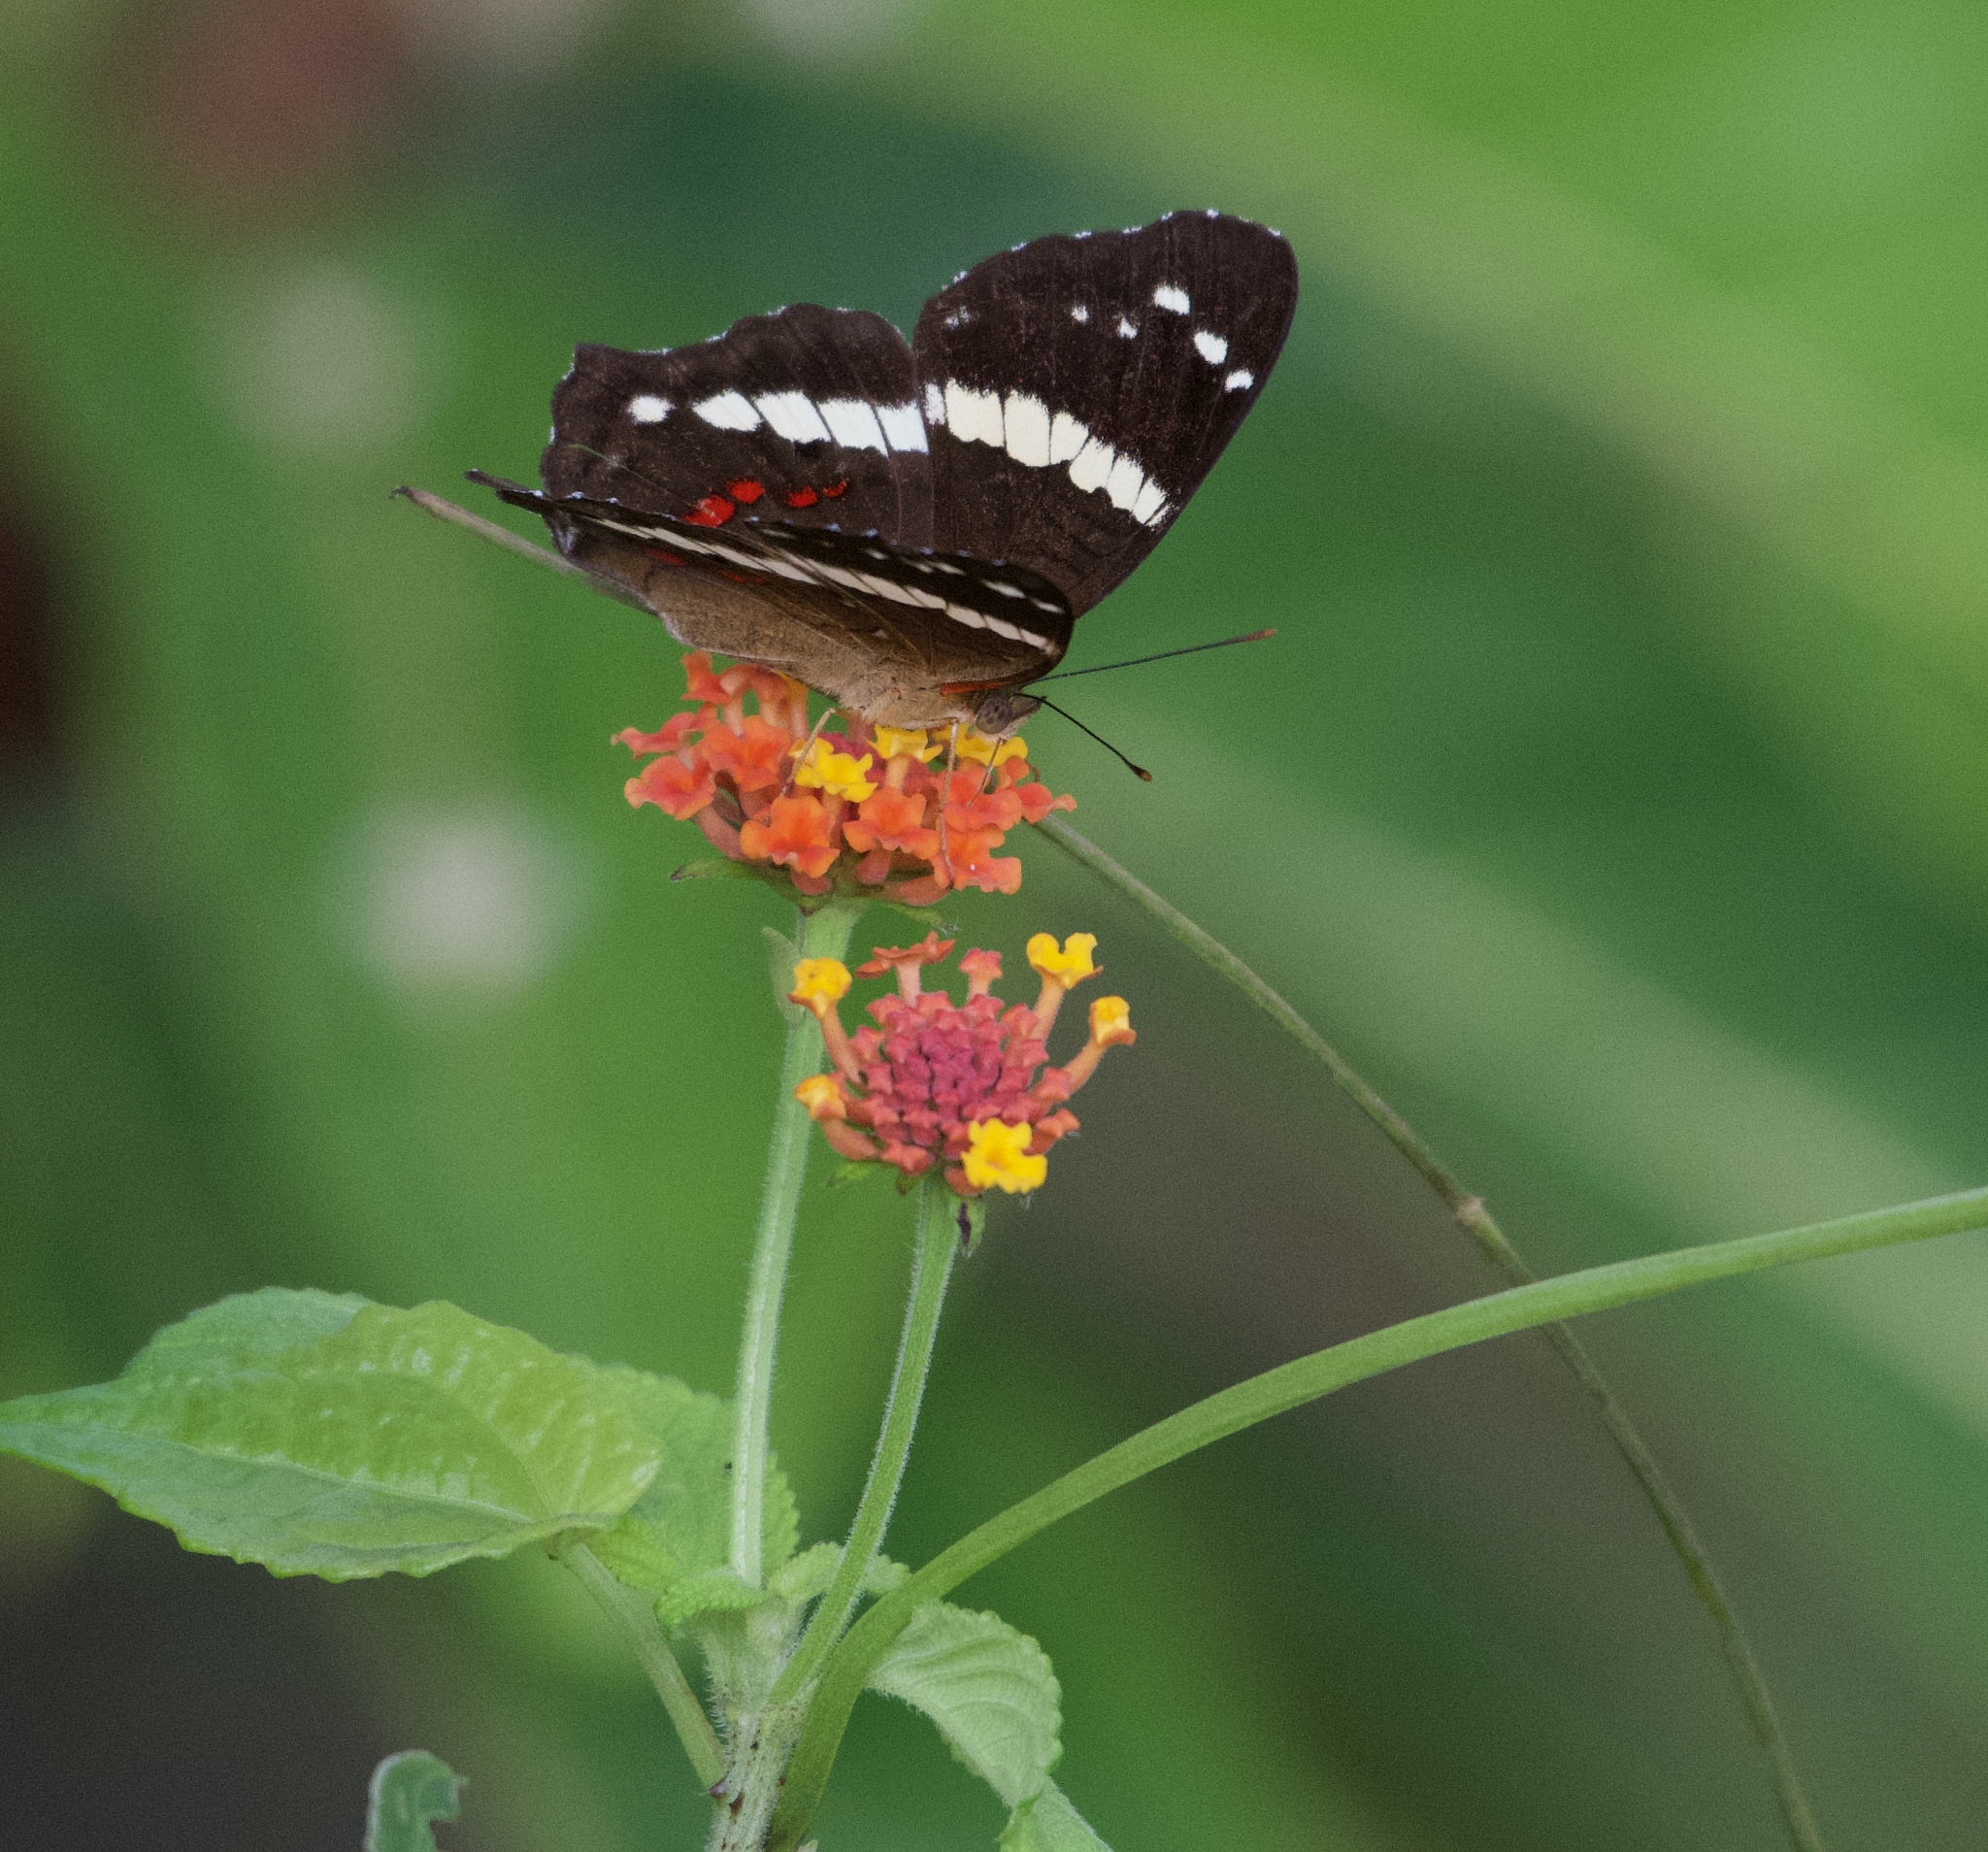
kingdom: Animalia
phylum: Arthropoda
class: Insecta
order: Lepidoptera
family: Nymphalidae
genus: Anartia
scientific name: Anartia fatima
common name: Banded peacock
